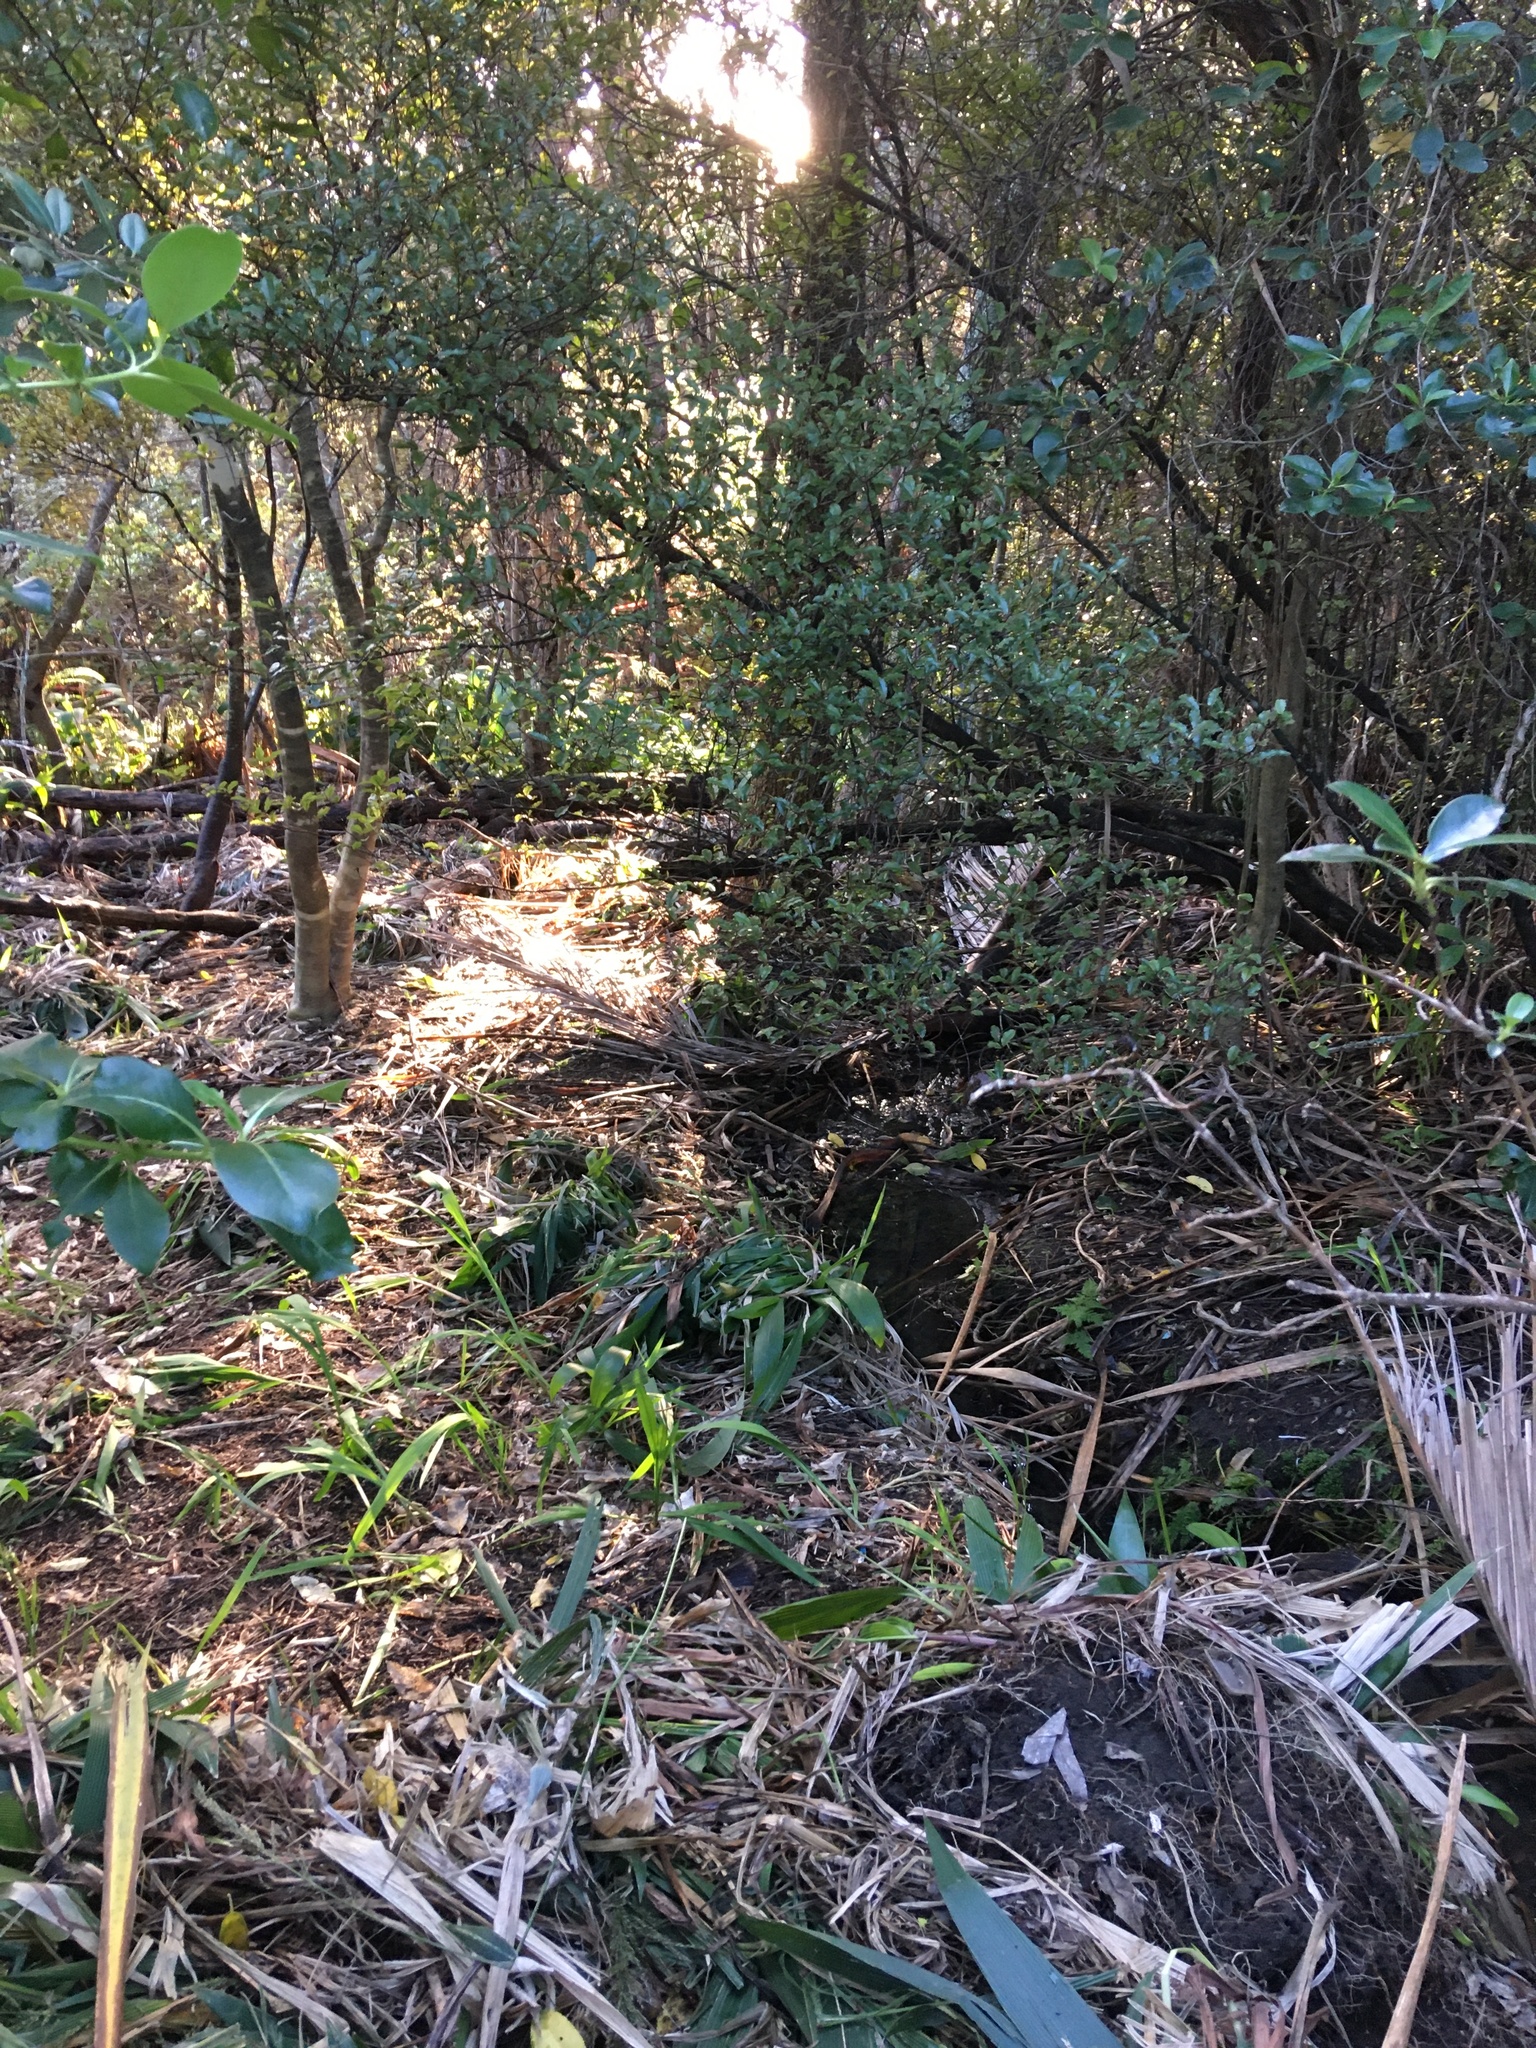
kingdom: Plantae
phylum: Tracheophyta
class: Magnoliopsida
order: Apiales
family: Pittosporaceae
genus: Pittosporum
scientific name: Pittosporum tenuifolium
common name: Kohuhu
